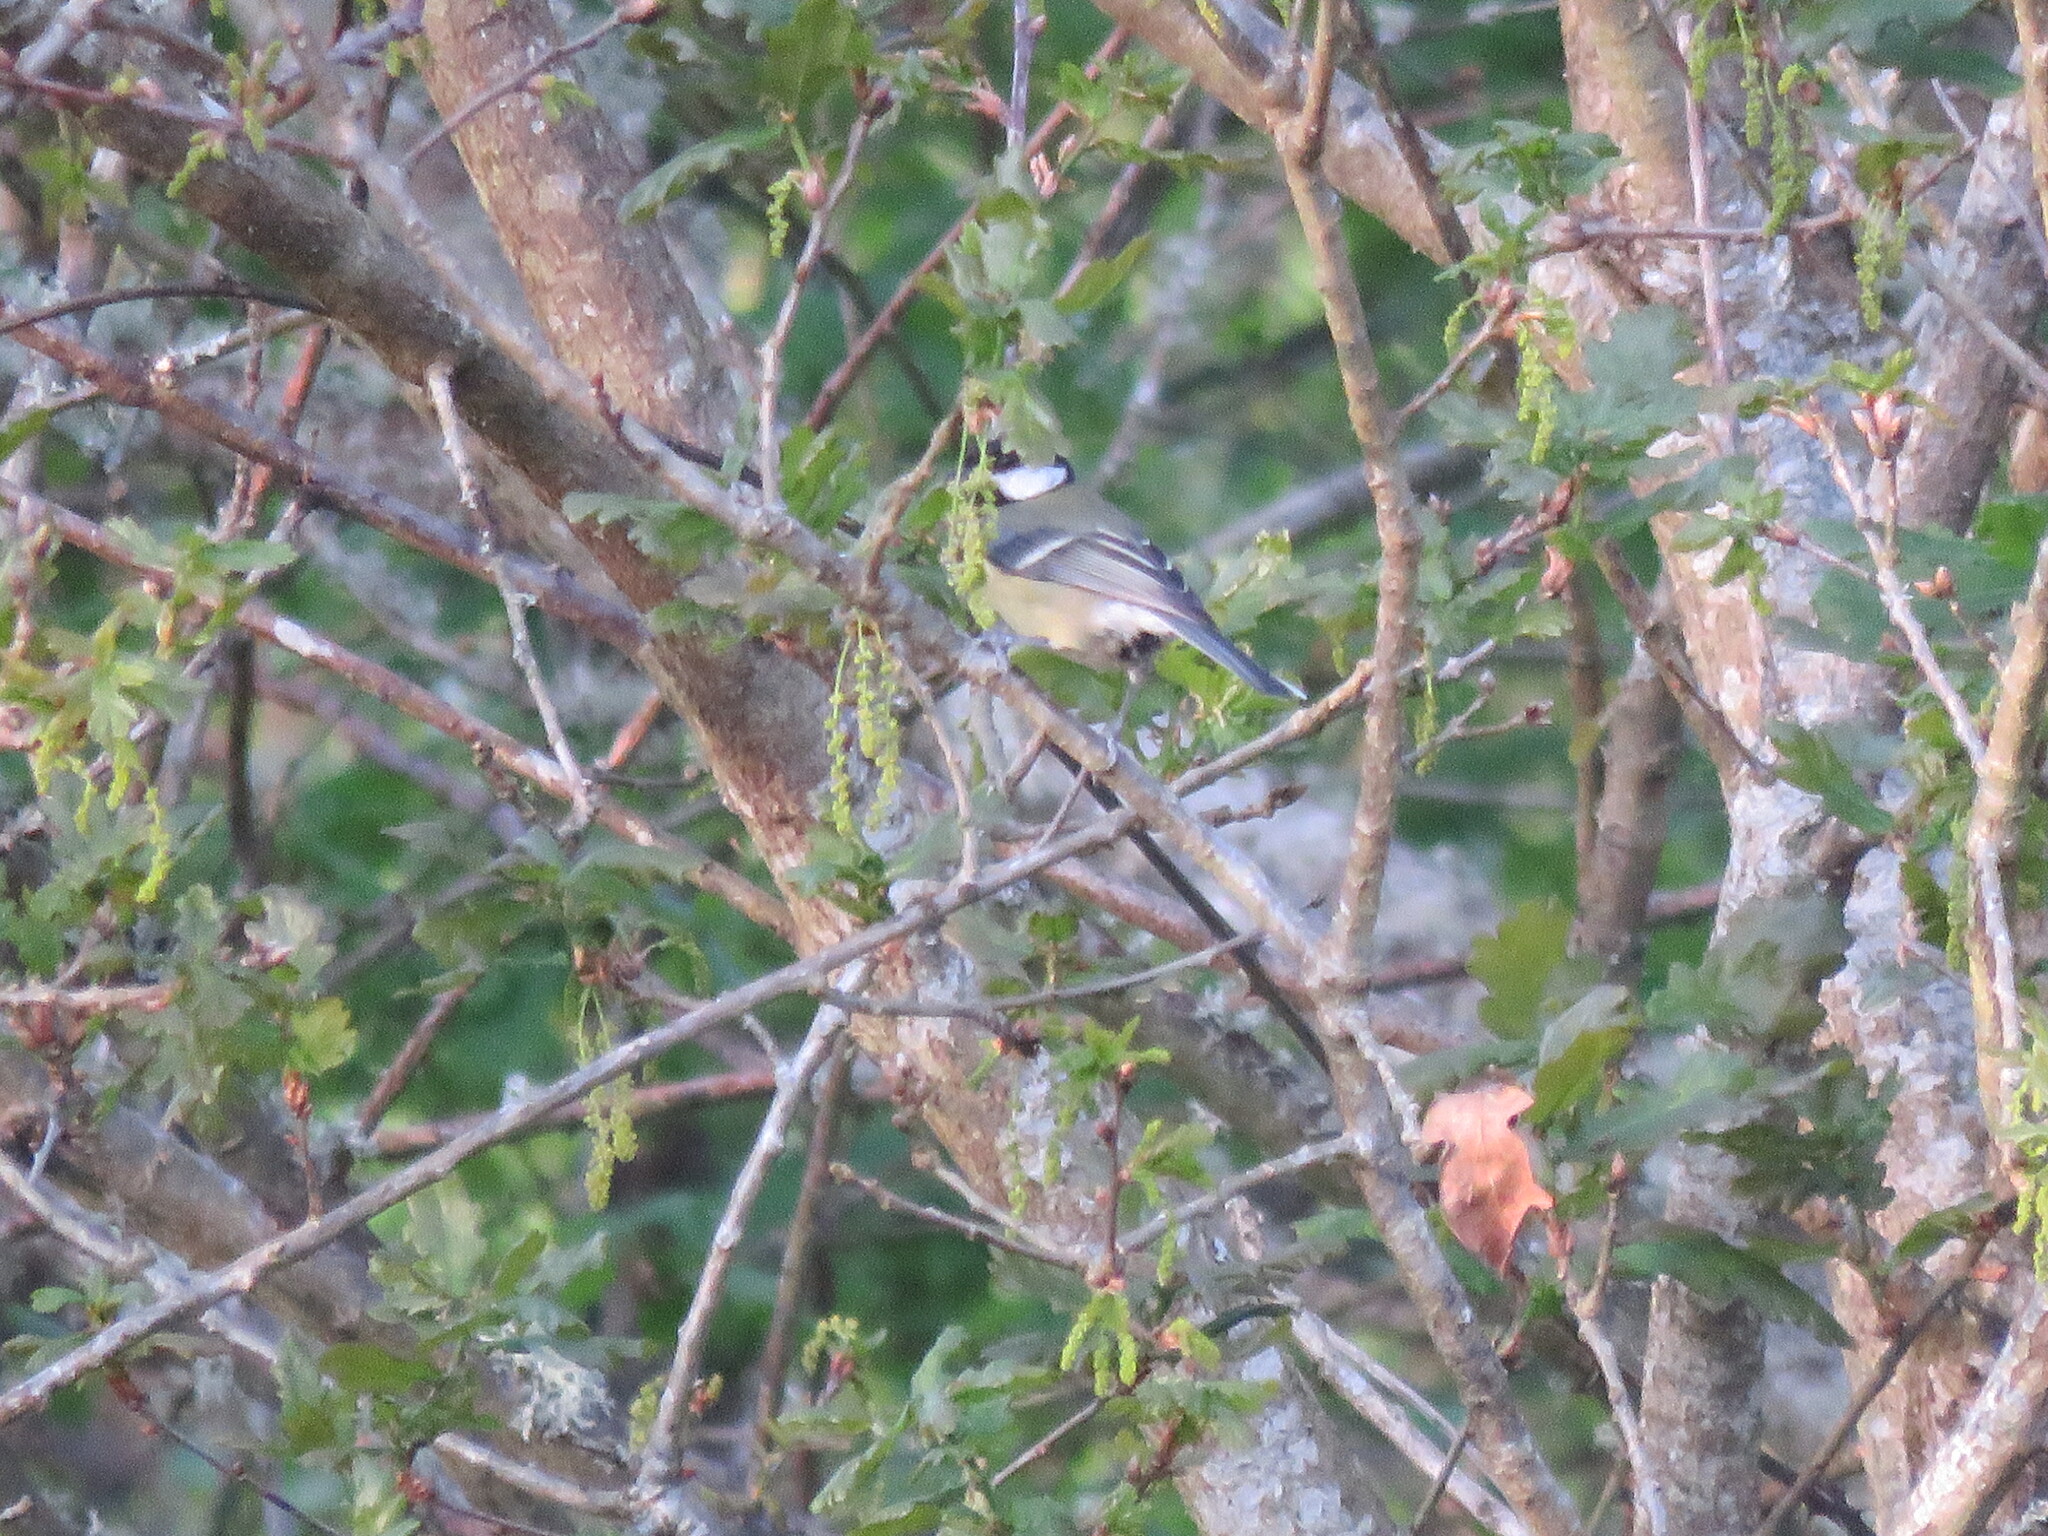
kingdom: Animalia
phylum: Chordata
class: Aves
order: Passeriformes
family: Paridae
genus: Parus
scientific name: Parus major
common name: Great tit
